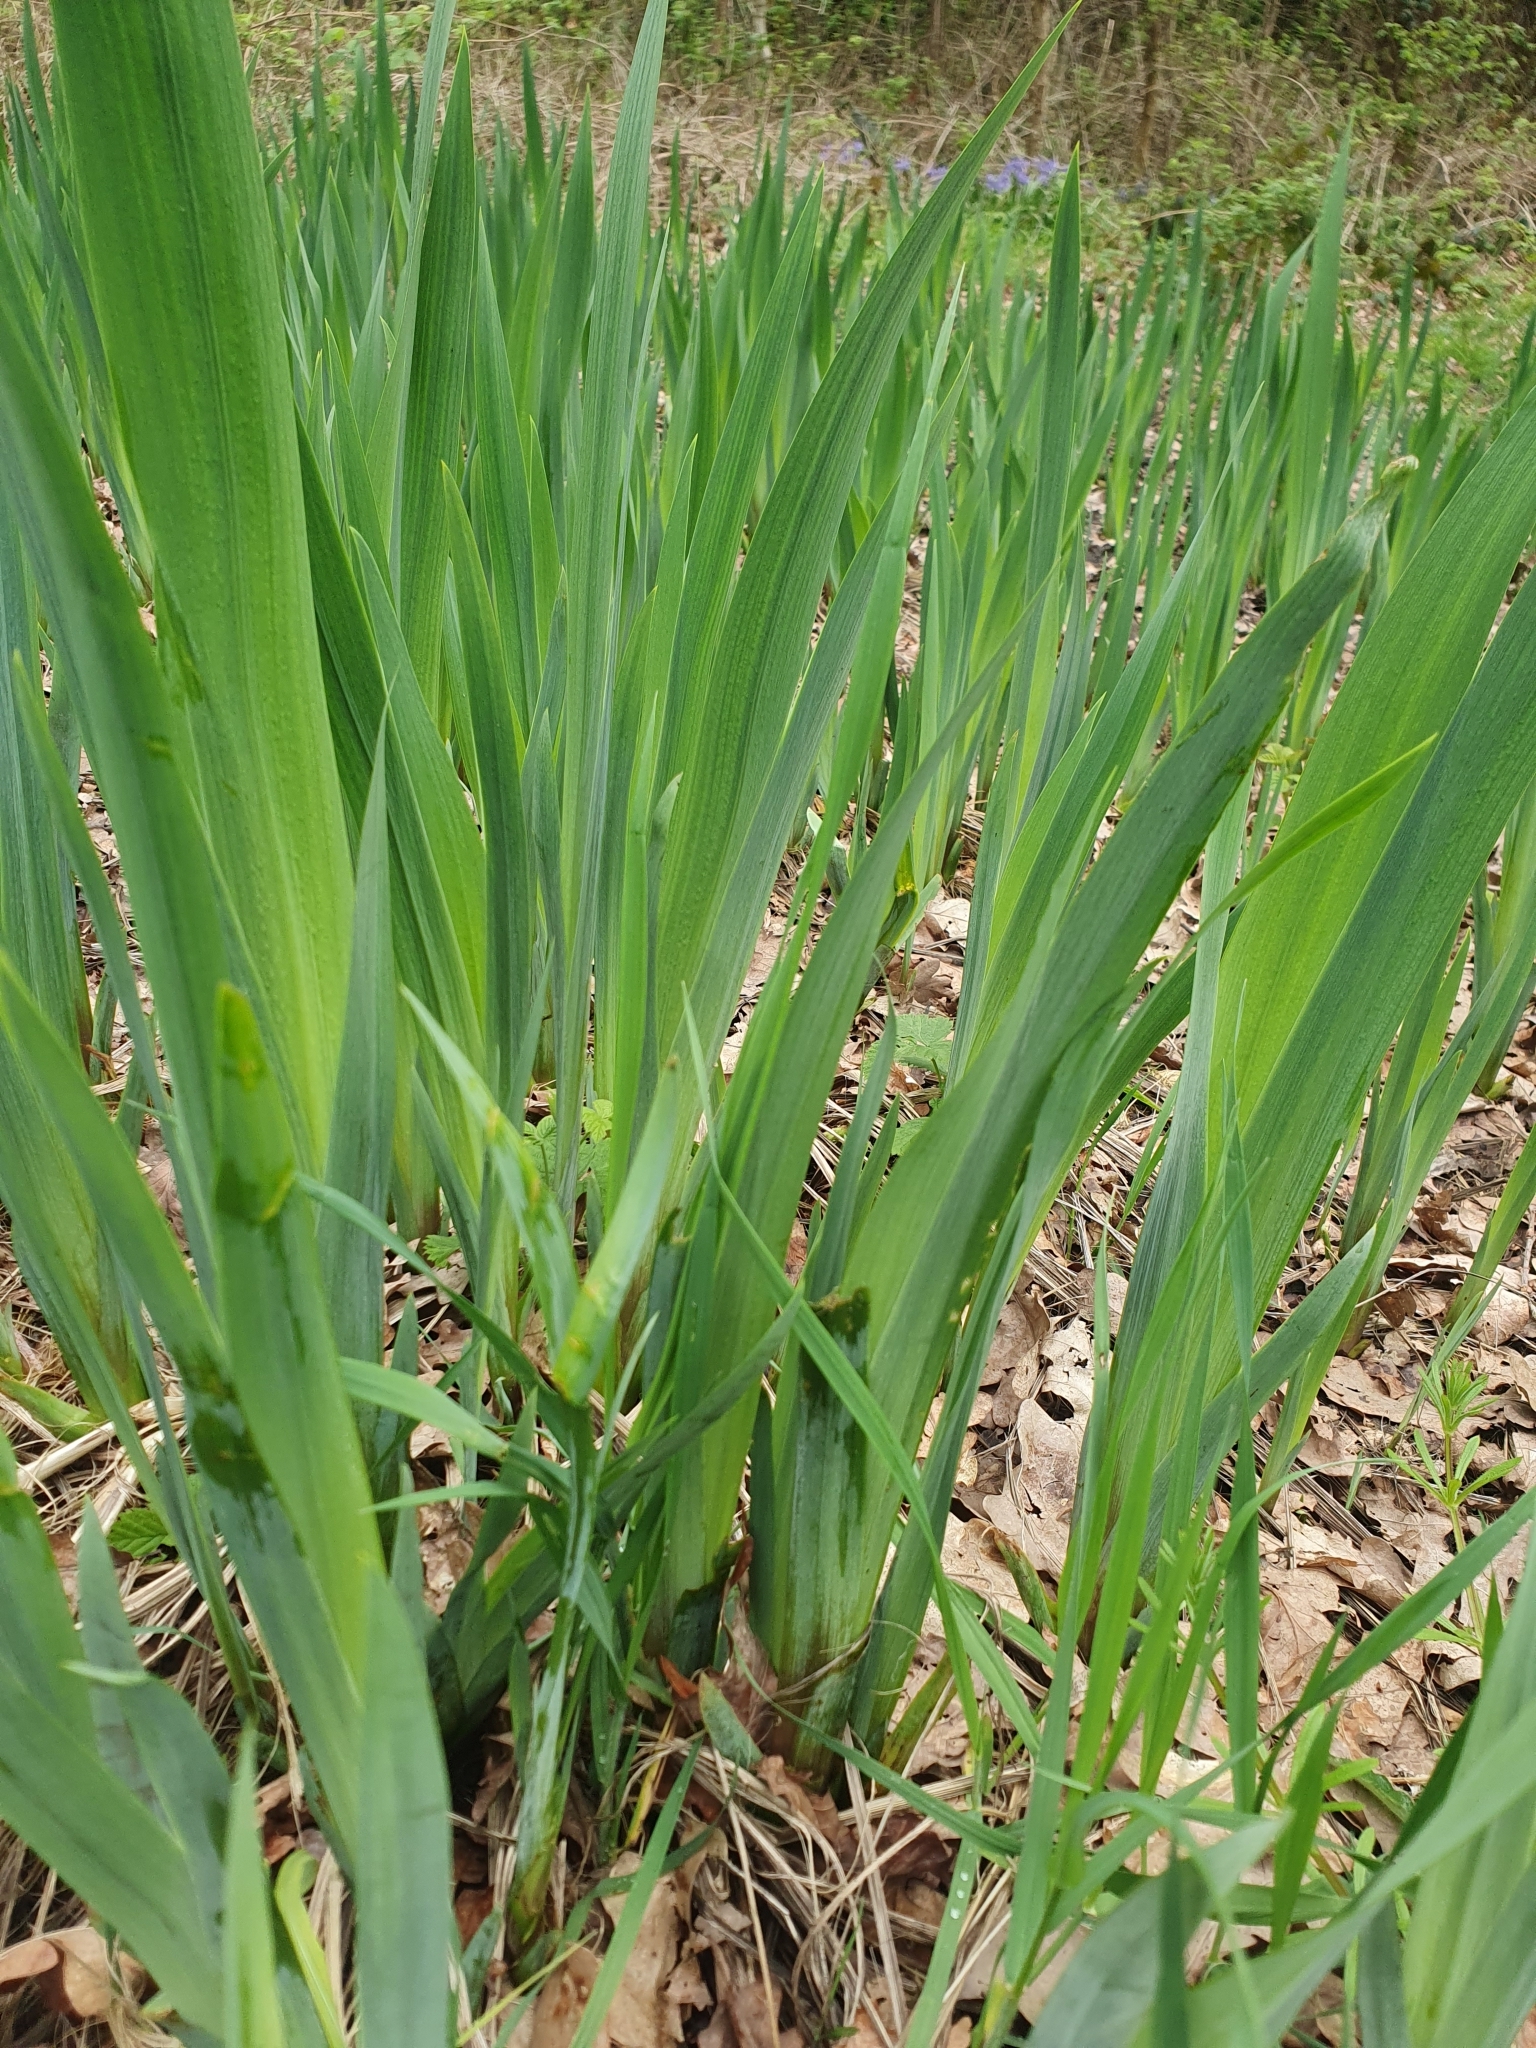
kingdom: Plantae
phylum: Tracheophyta
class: Liliopsida
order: Asparagales
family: Iridaceae
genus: Iris
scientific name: Iris pseudacorus
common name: Yellow flag
